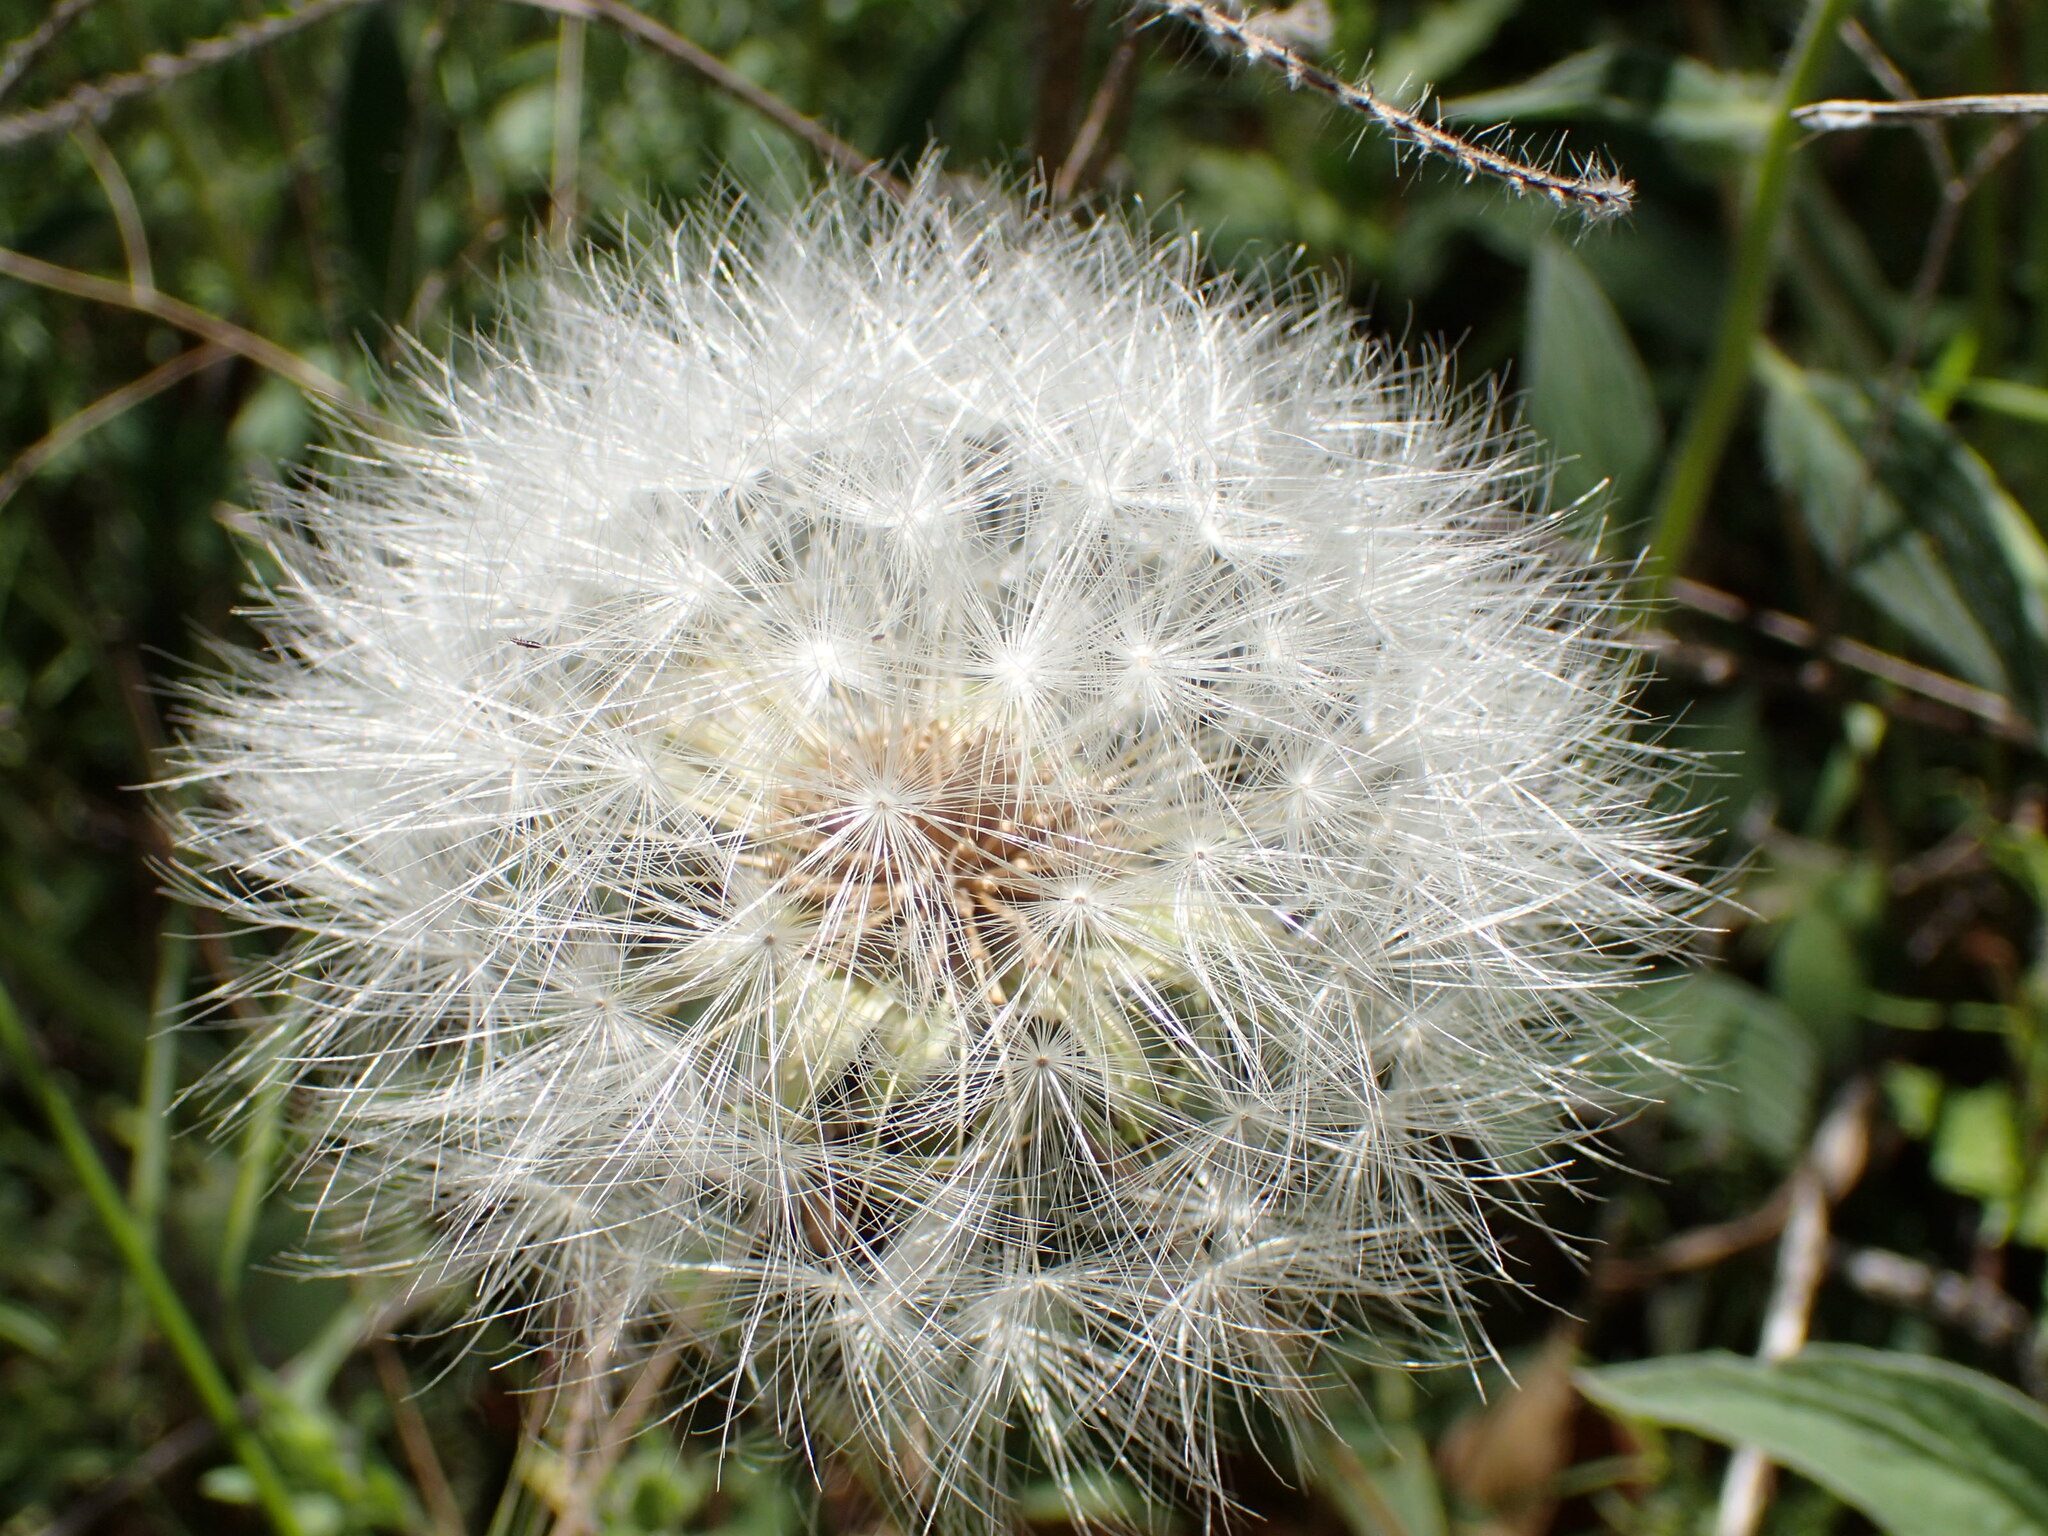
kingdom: Plantae
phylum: Tracheophyta
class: Magnoliopsida
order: Asterales
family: Asteraceae
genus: Agoseris
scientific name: Agoseris retrorsa
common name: Spearleaf agoseris
